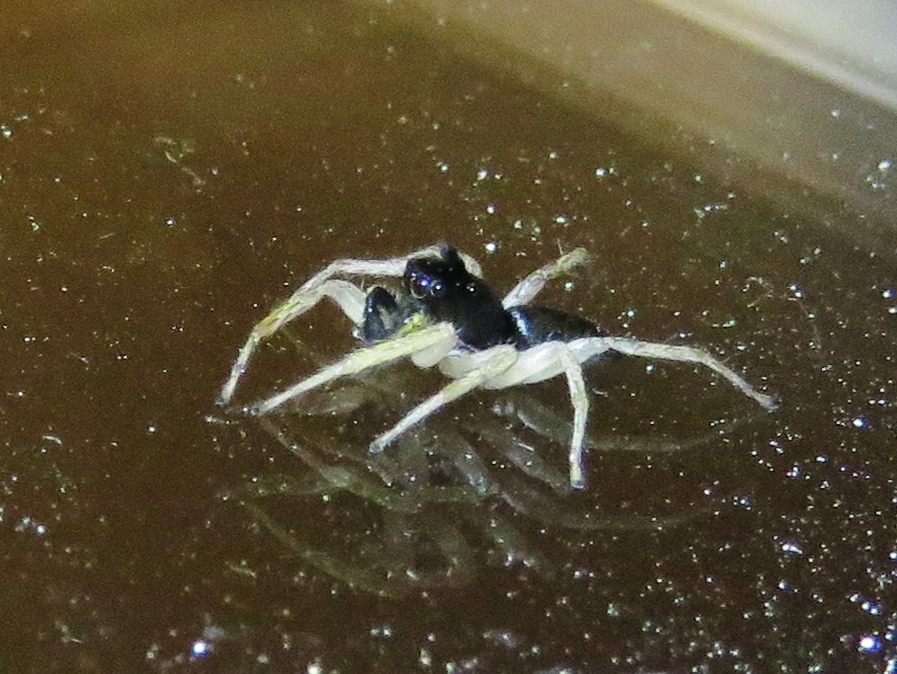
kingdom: Animalia
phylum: Arthropoda
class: Arachnida
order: Araneae
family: Salticidae
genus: Maevia
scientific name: Maevia inclemens
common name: Dimorphic jumper
